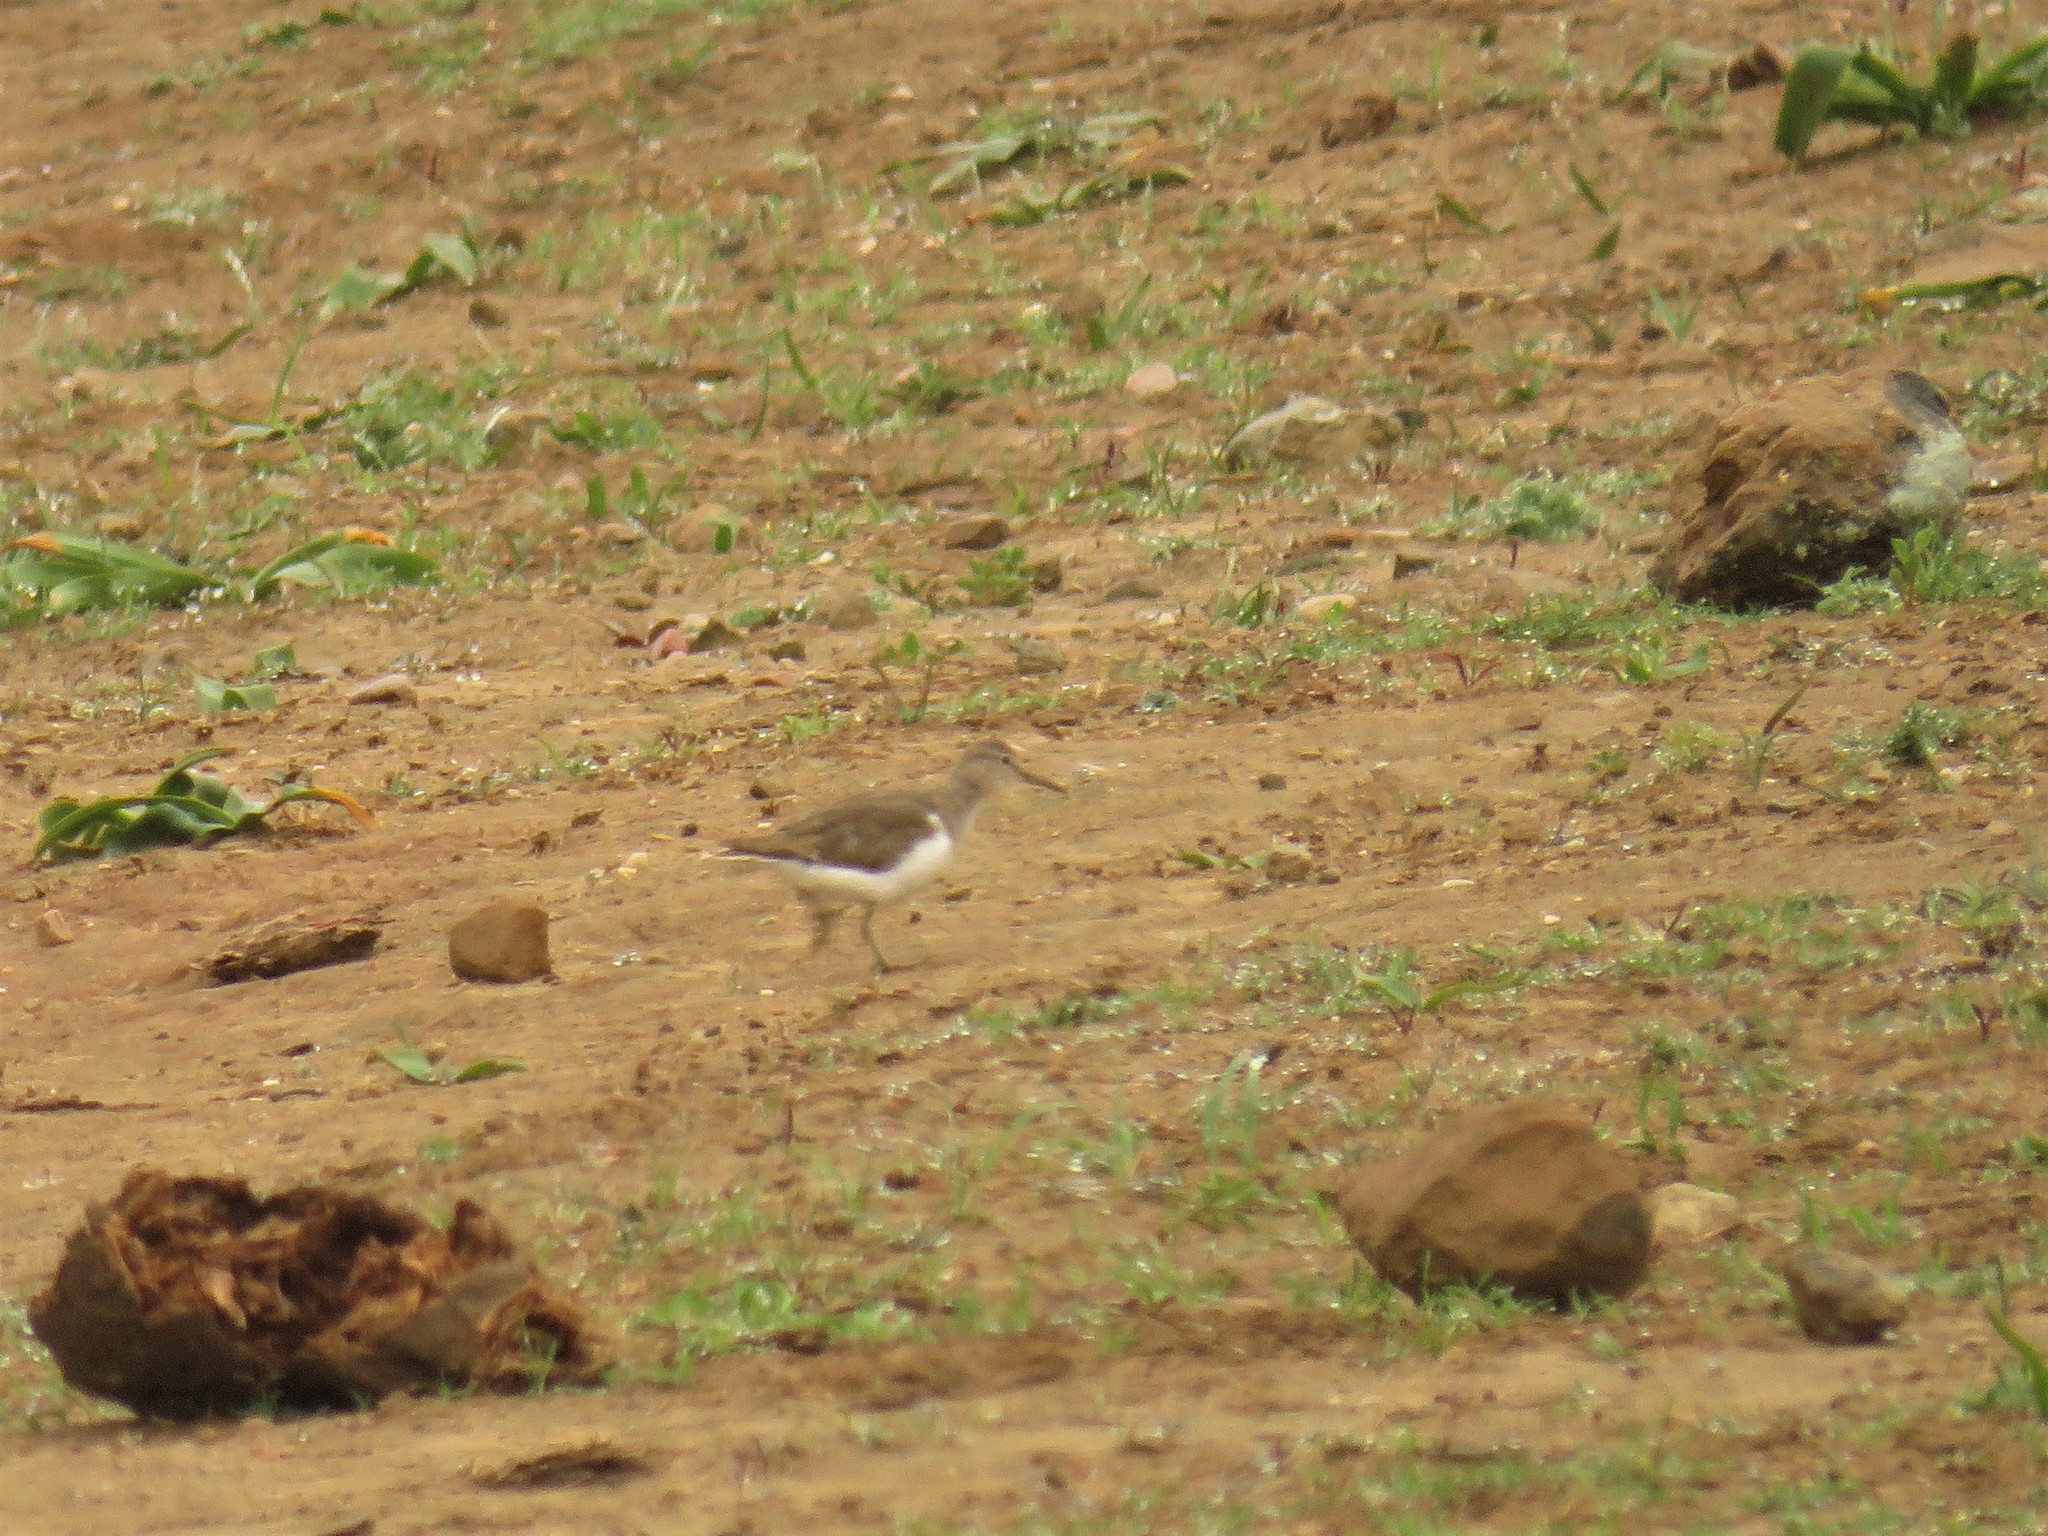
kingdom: Animalia
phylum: Chordata
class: Aves
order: Charadriiformes
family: Scolopacidae
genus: Actitis
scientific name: Actitis hypoleucos
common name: Common sandpiper
